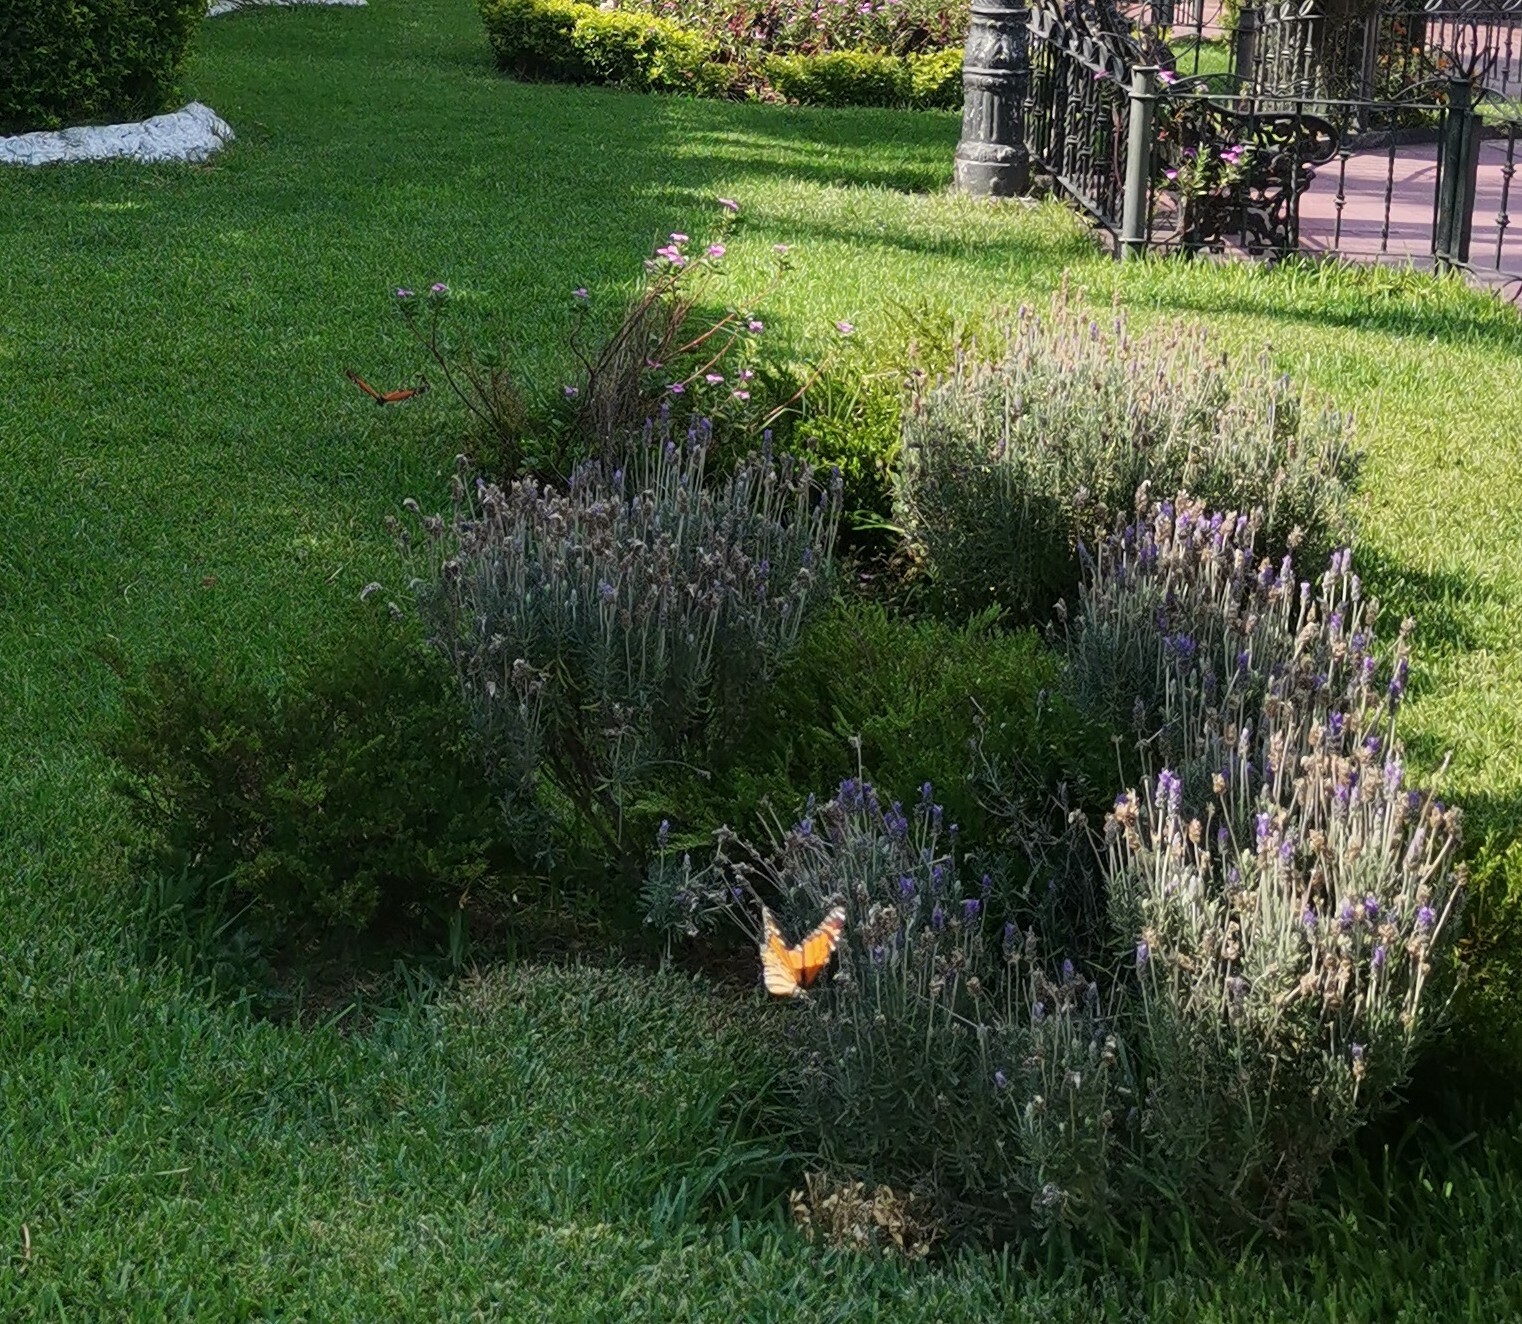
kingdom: Animalia
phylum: Arthropoda
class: Insecta
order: Lepidoptera
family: Nymphalidae
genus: Danaus
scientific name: Danaus plexippus
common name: Monarch
